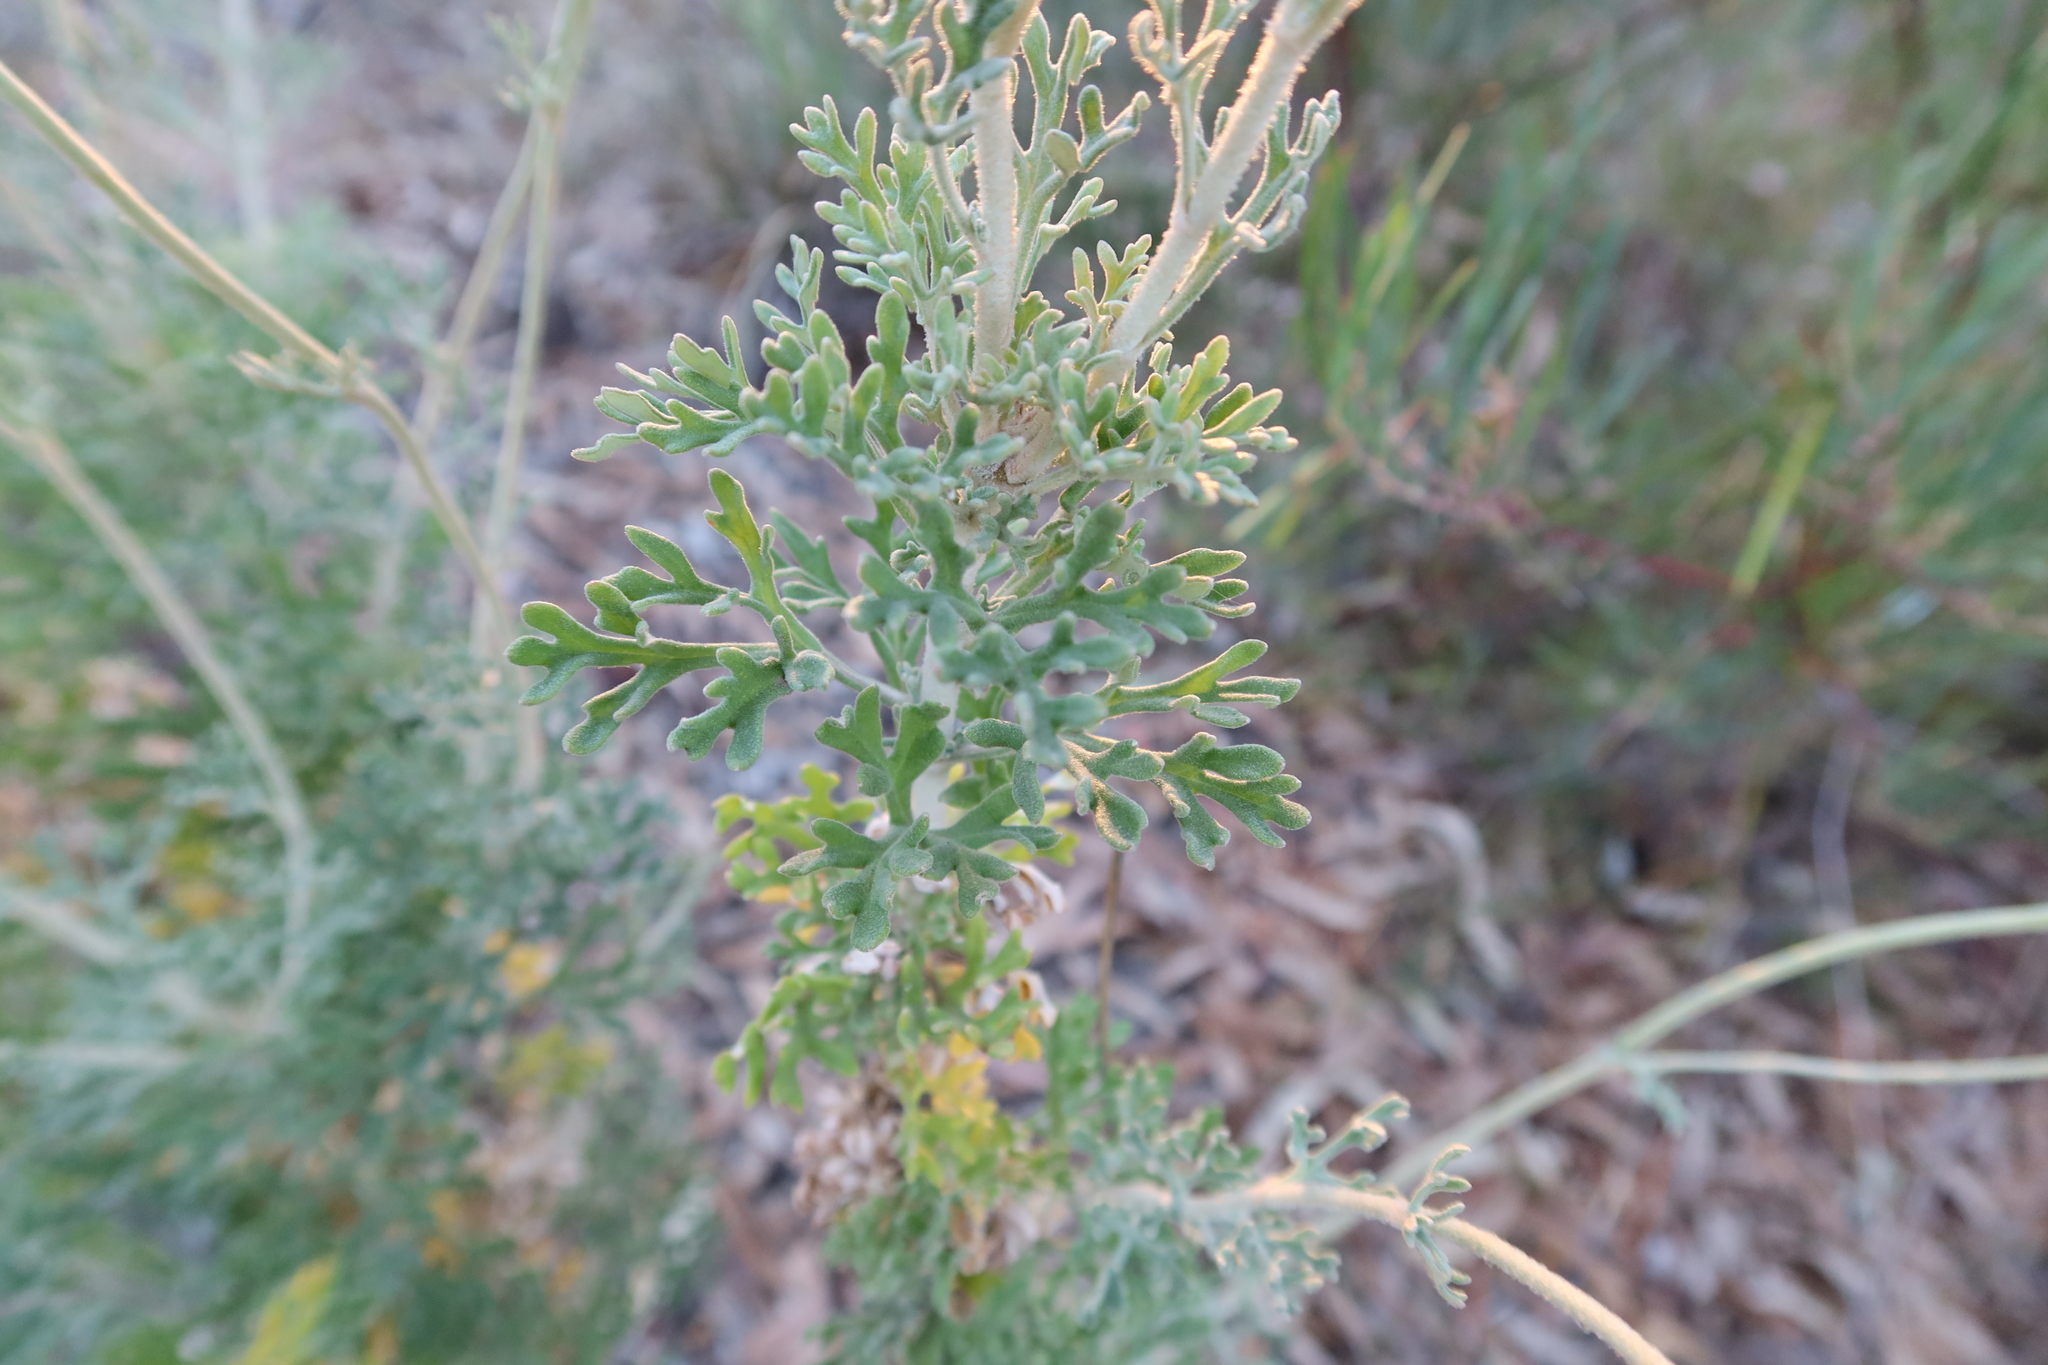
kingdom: Plantae
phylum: Tracheophyta
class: Magnoliopsida
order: Apiales
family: Apiaceae
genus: Actinotus
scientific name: Actinotus helianthi
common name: Flannel-flower
